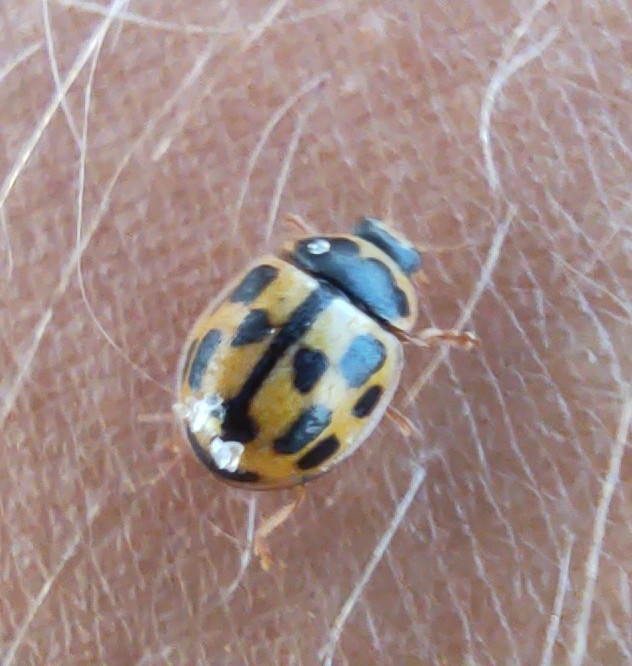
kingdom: Animalia
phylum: Arthropoda
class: Insecta
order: Coleoptera
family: Coccinellidae
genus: Propylaea
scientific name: Propylaea quatuordecimpunctata
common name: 14-spotted ladybird beetle
